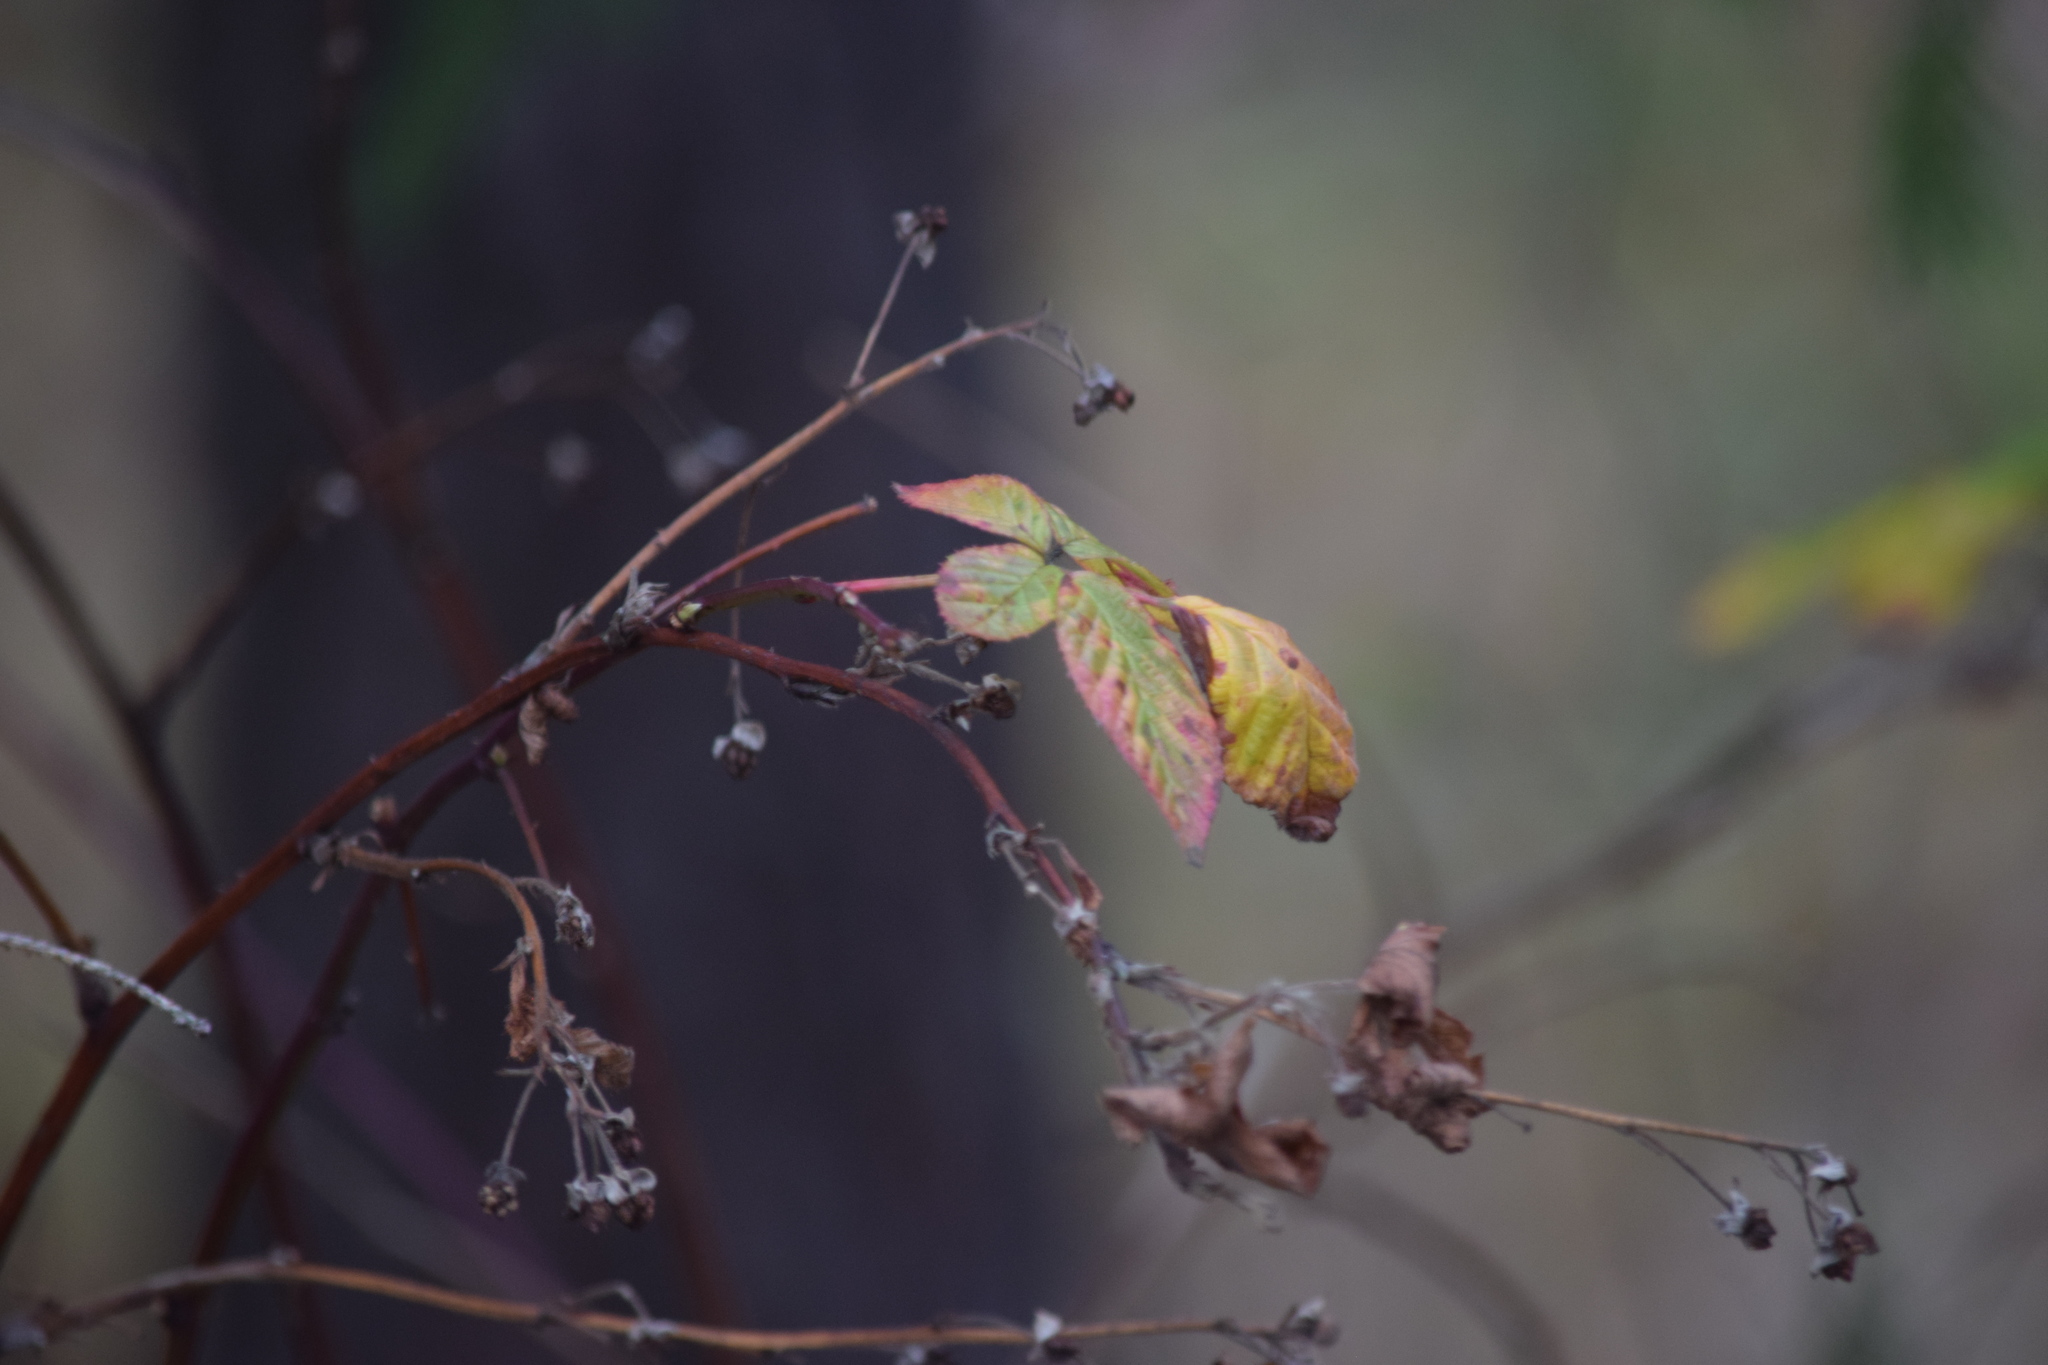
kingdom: Plantae
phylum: Tracheophyta
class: Magnoliopsida
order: Rosales
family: Rosaceae
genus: Rubus
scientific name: Rubus idaeus
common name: Raspberry
